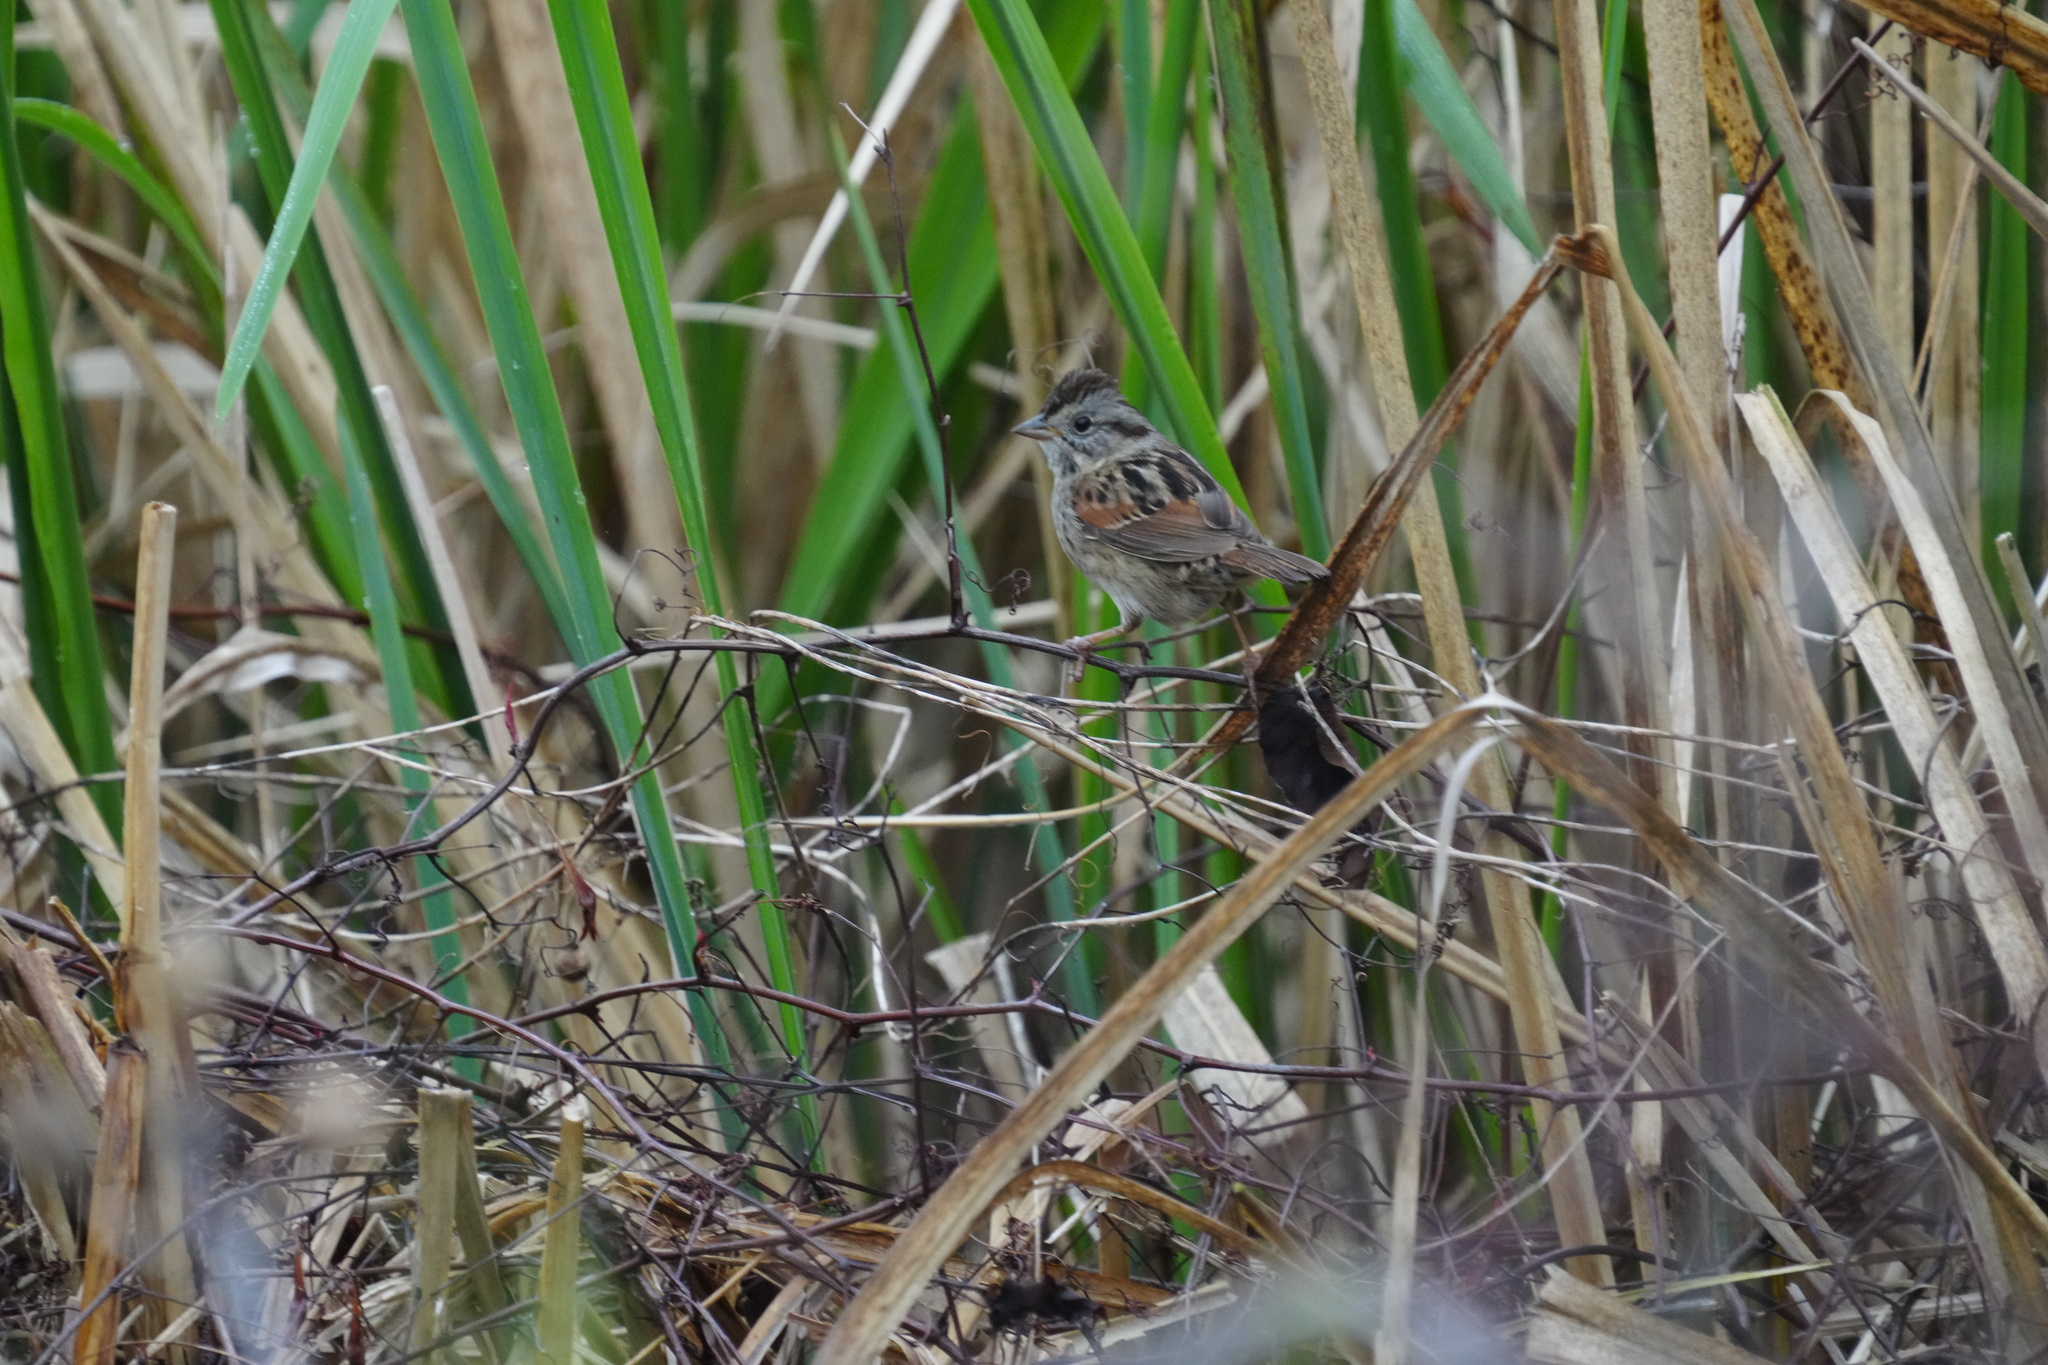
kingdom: Animalia
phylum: Chordata
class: Aves
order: Passeriformes
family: Passerellidae
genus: Melospiza
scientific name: Melospiza georgiana
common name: Swamp sparrow
